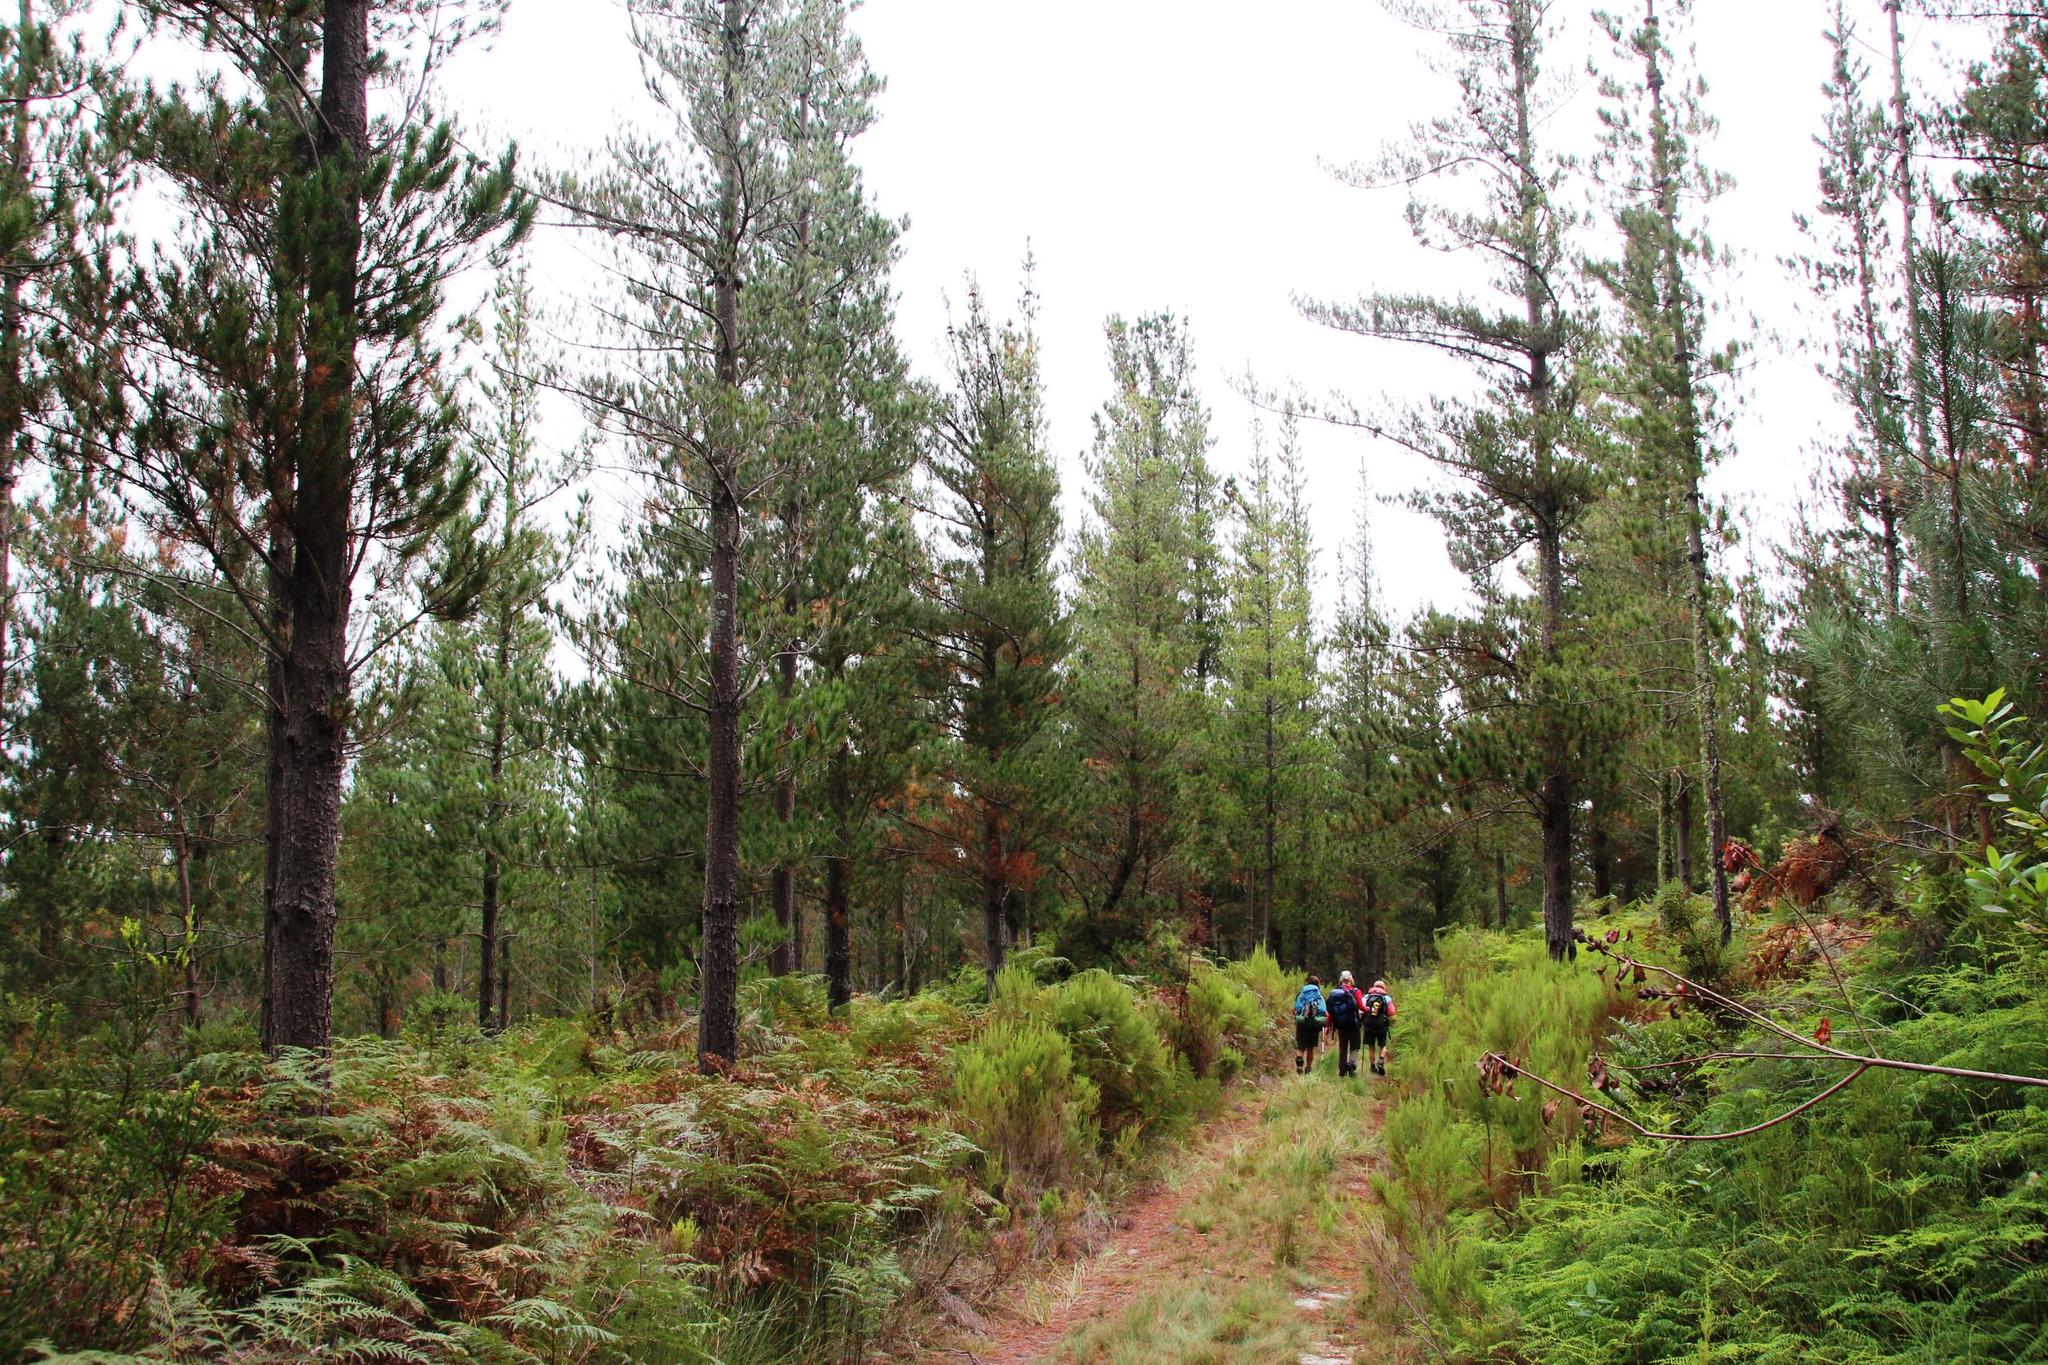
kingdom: Plantae
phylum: Tracheophyta
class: Pinopsida
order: Pinales
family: Pinaceae
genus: Pinus
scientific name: Pinus radiata
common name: Monterey pine
